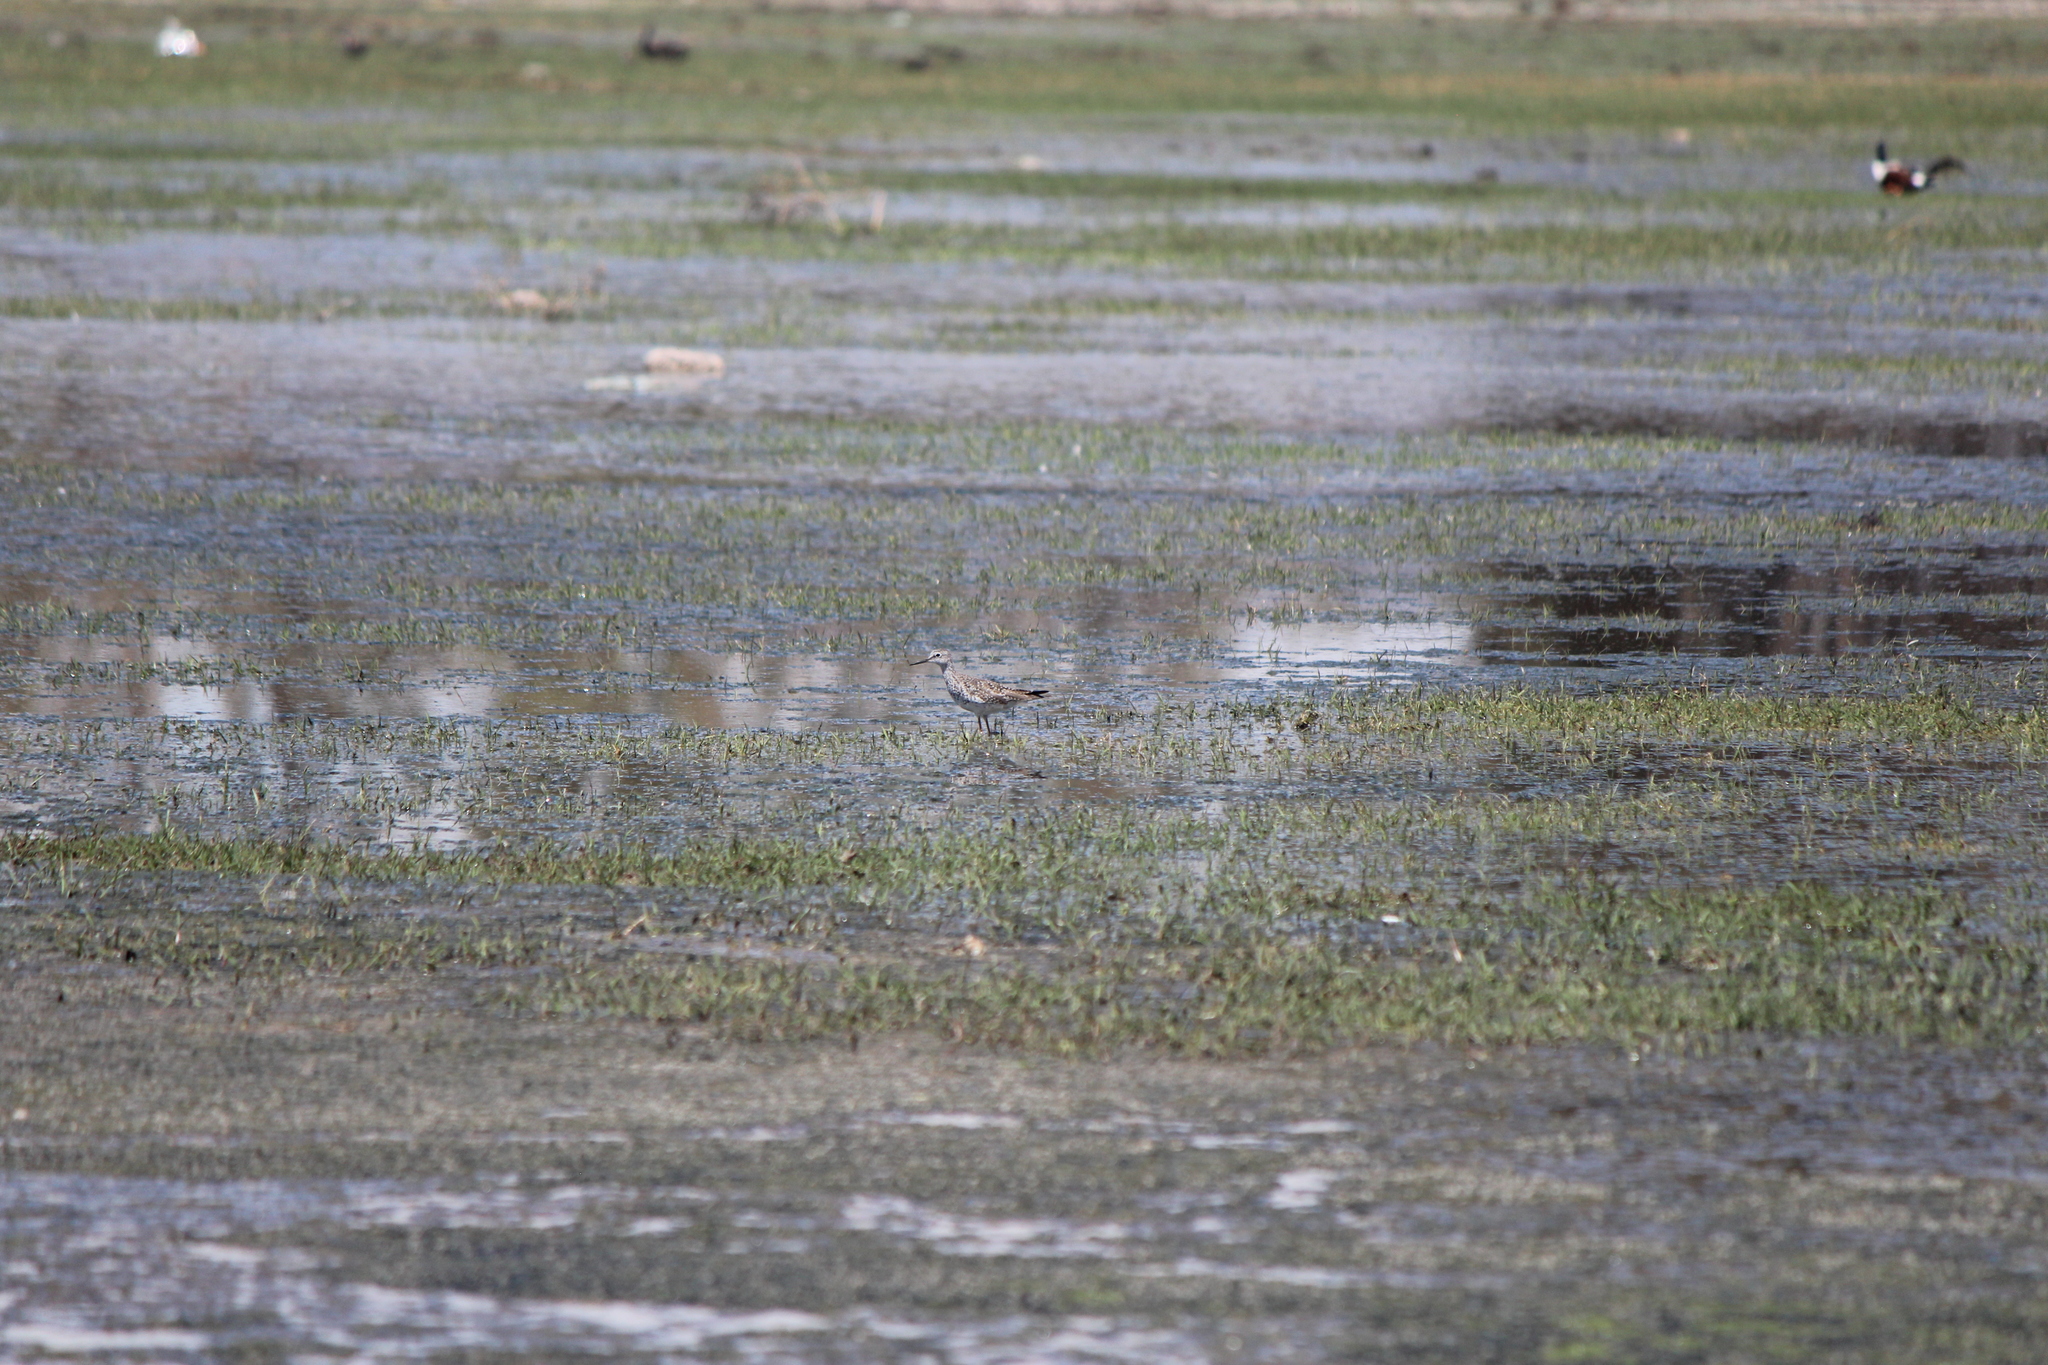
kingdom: Animalia
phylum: Chordata
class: Aves
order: Charadriiformes
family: Scolopacidae
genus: Tringa
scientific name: Tringa flavipes
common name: Lesser yellowlegs
